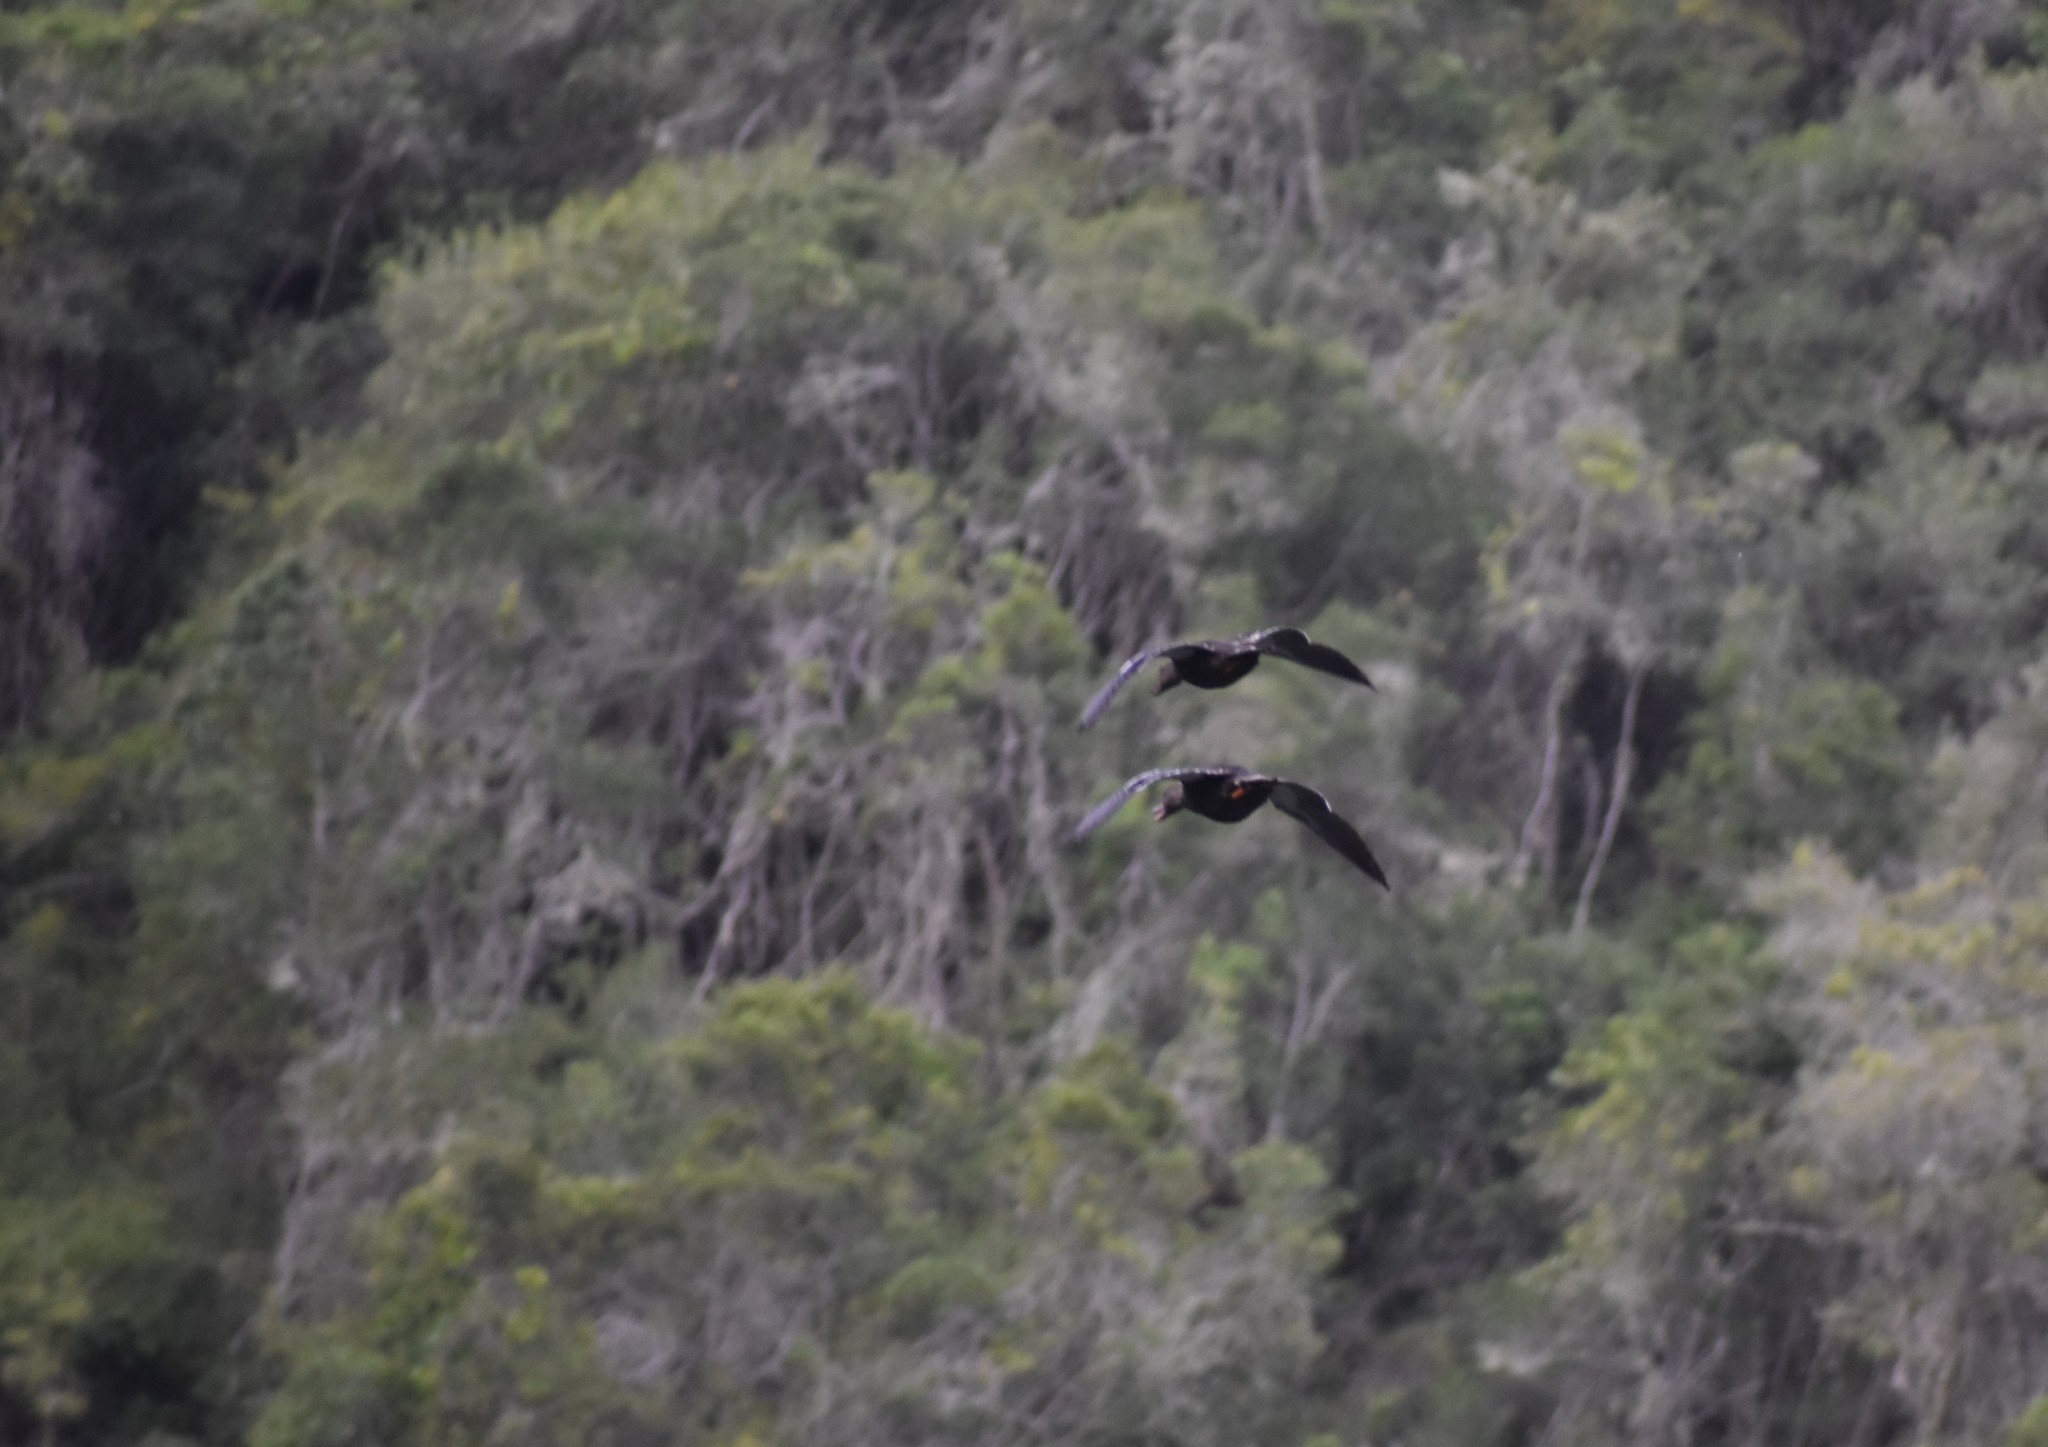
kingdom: Animalia
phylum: Chordata
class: Aves
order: Anseriformes
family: Anatidae
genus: Anas
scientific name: Anas sparsa
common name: African black duck
